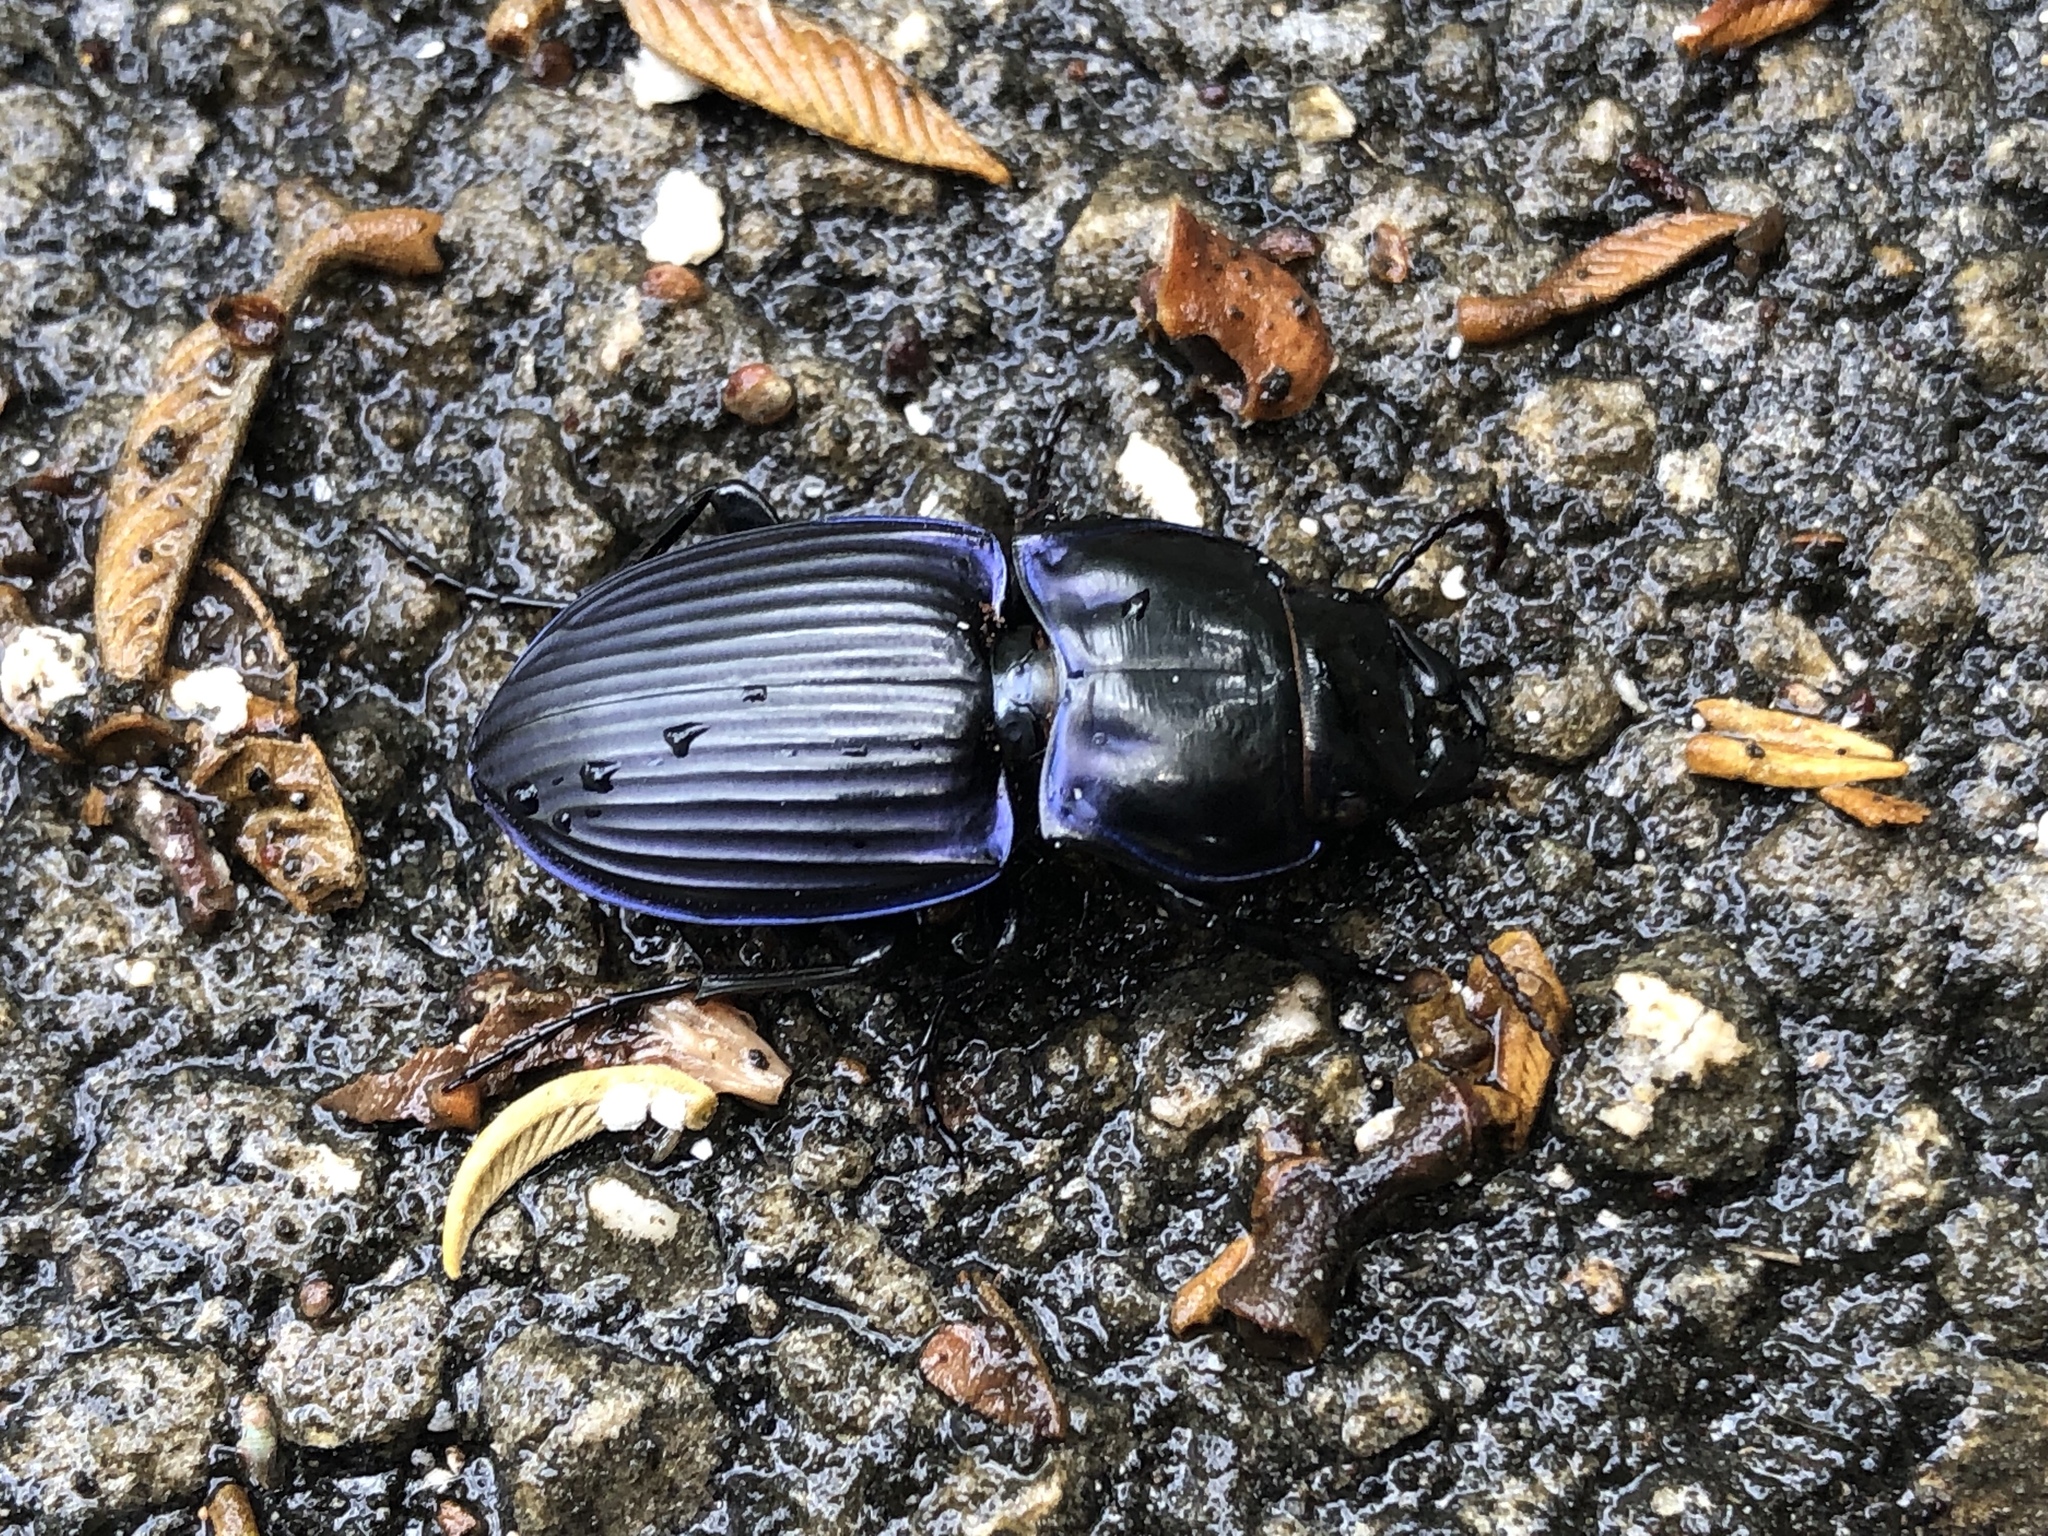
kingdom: Animalia
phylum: Arthropoda
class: Insecta
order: Coleoptera
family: Carabidae
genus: Pasimachus
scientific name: Pasimachus subsulcatus
